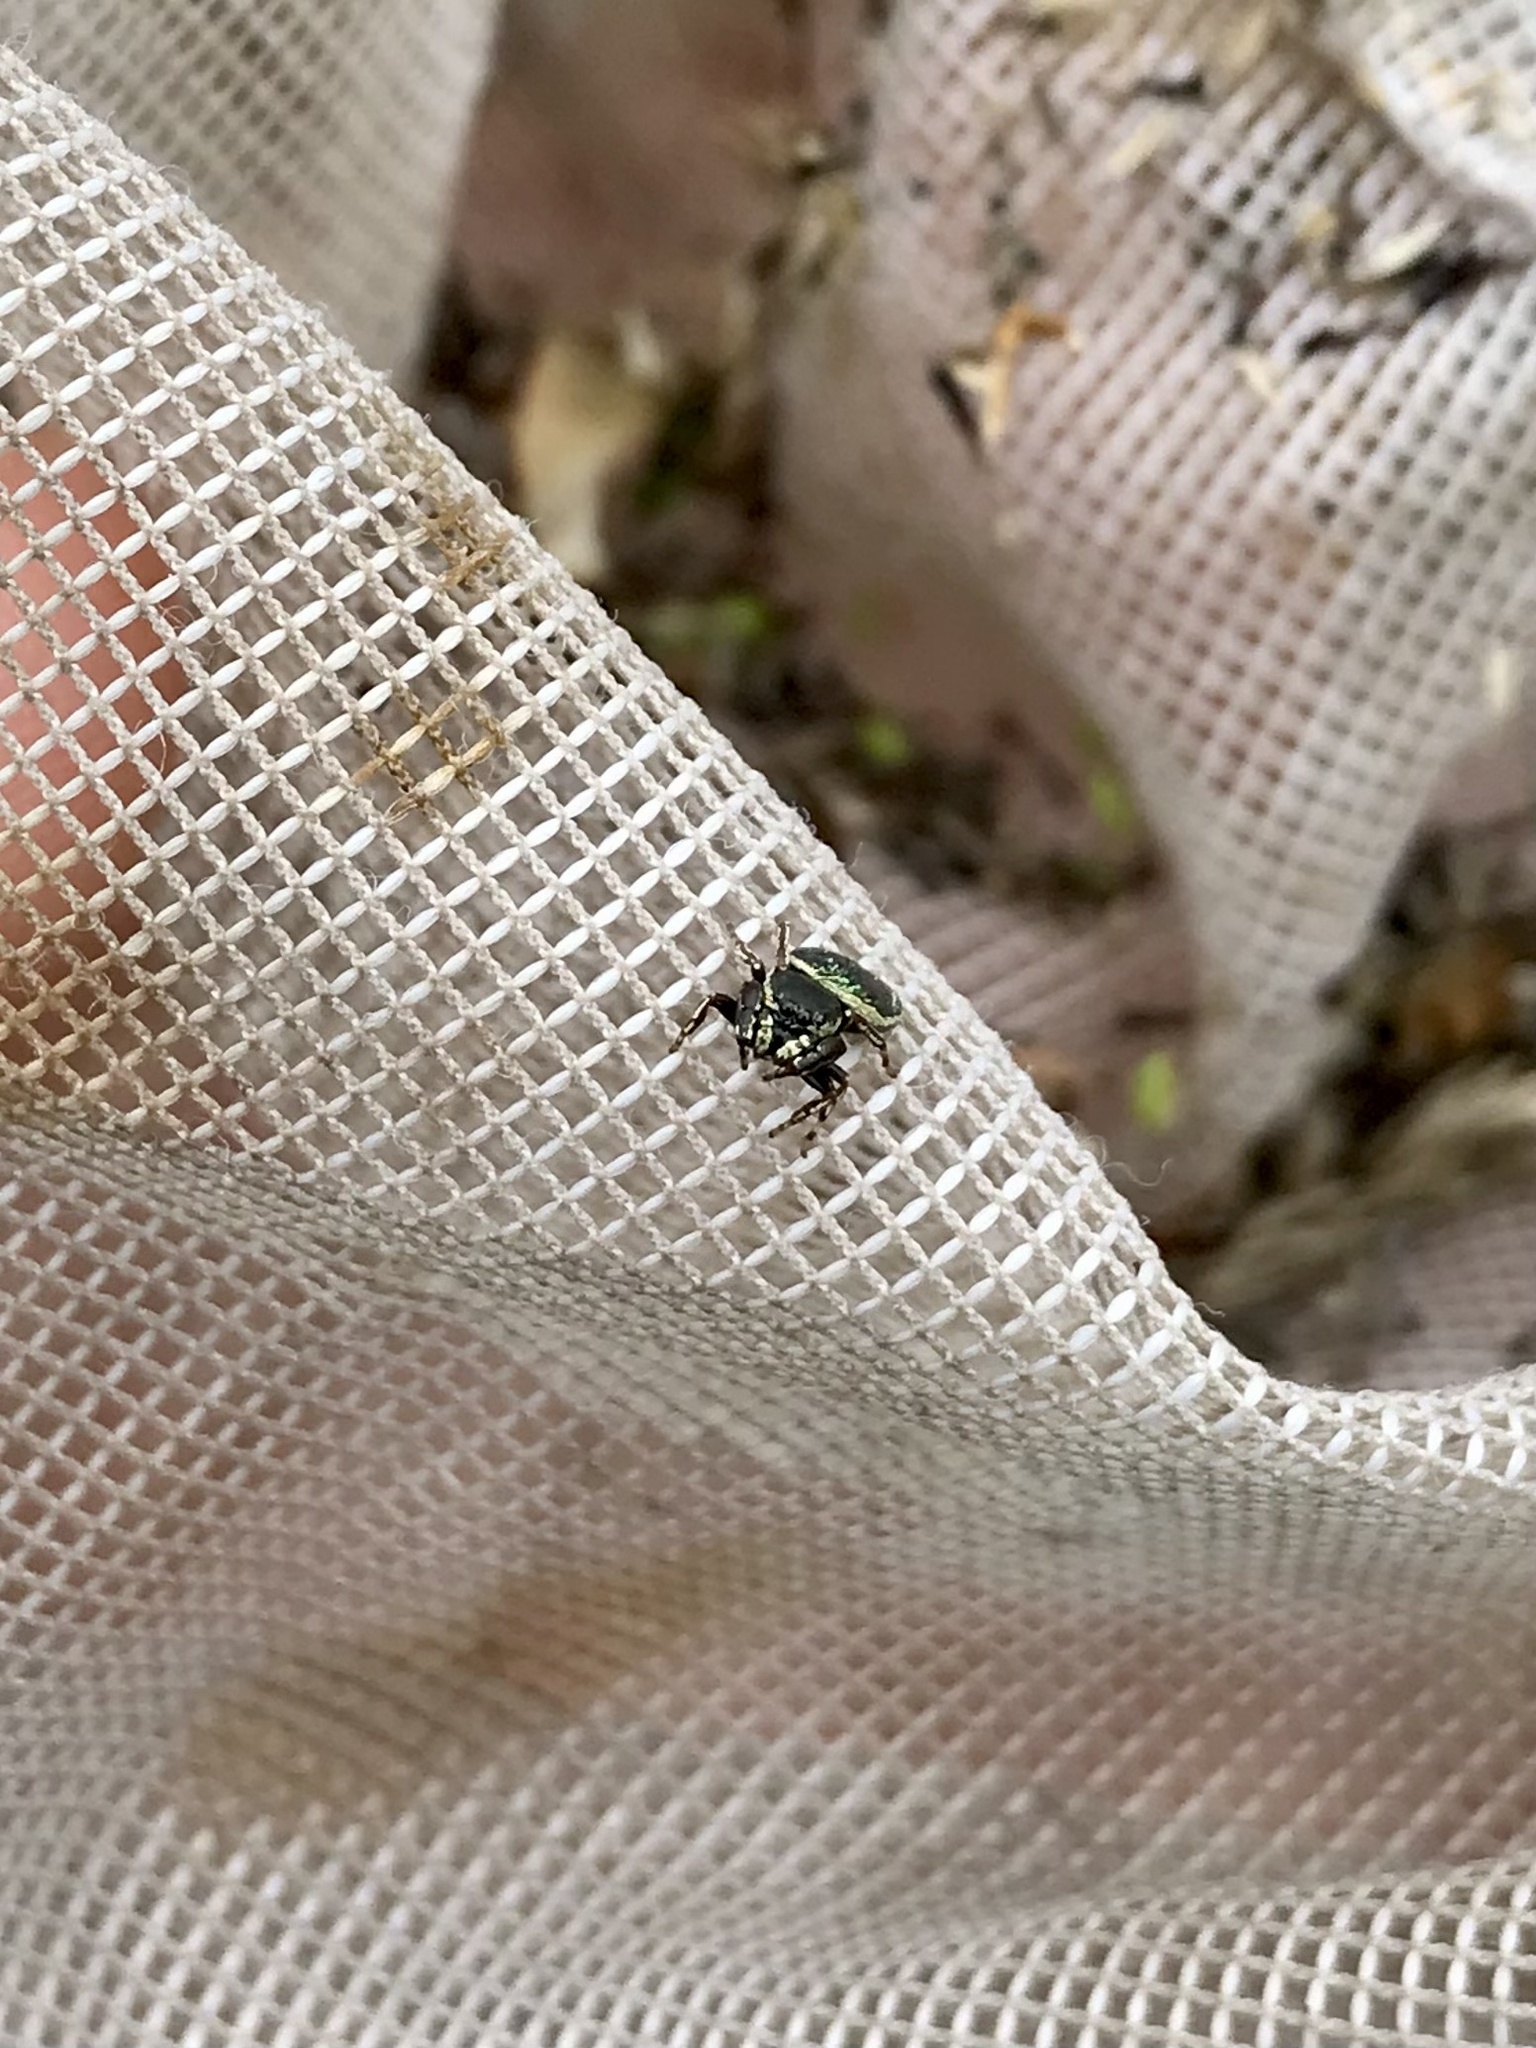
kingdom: Animalia
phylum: Arthropoda
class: Arachnida
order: Araneae
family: Salticidae
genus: Sassacus
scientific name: Sassacus papenhoei
